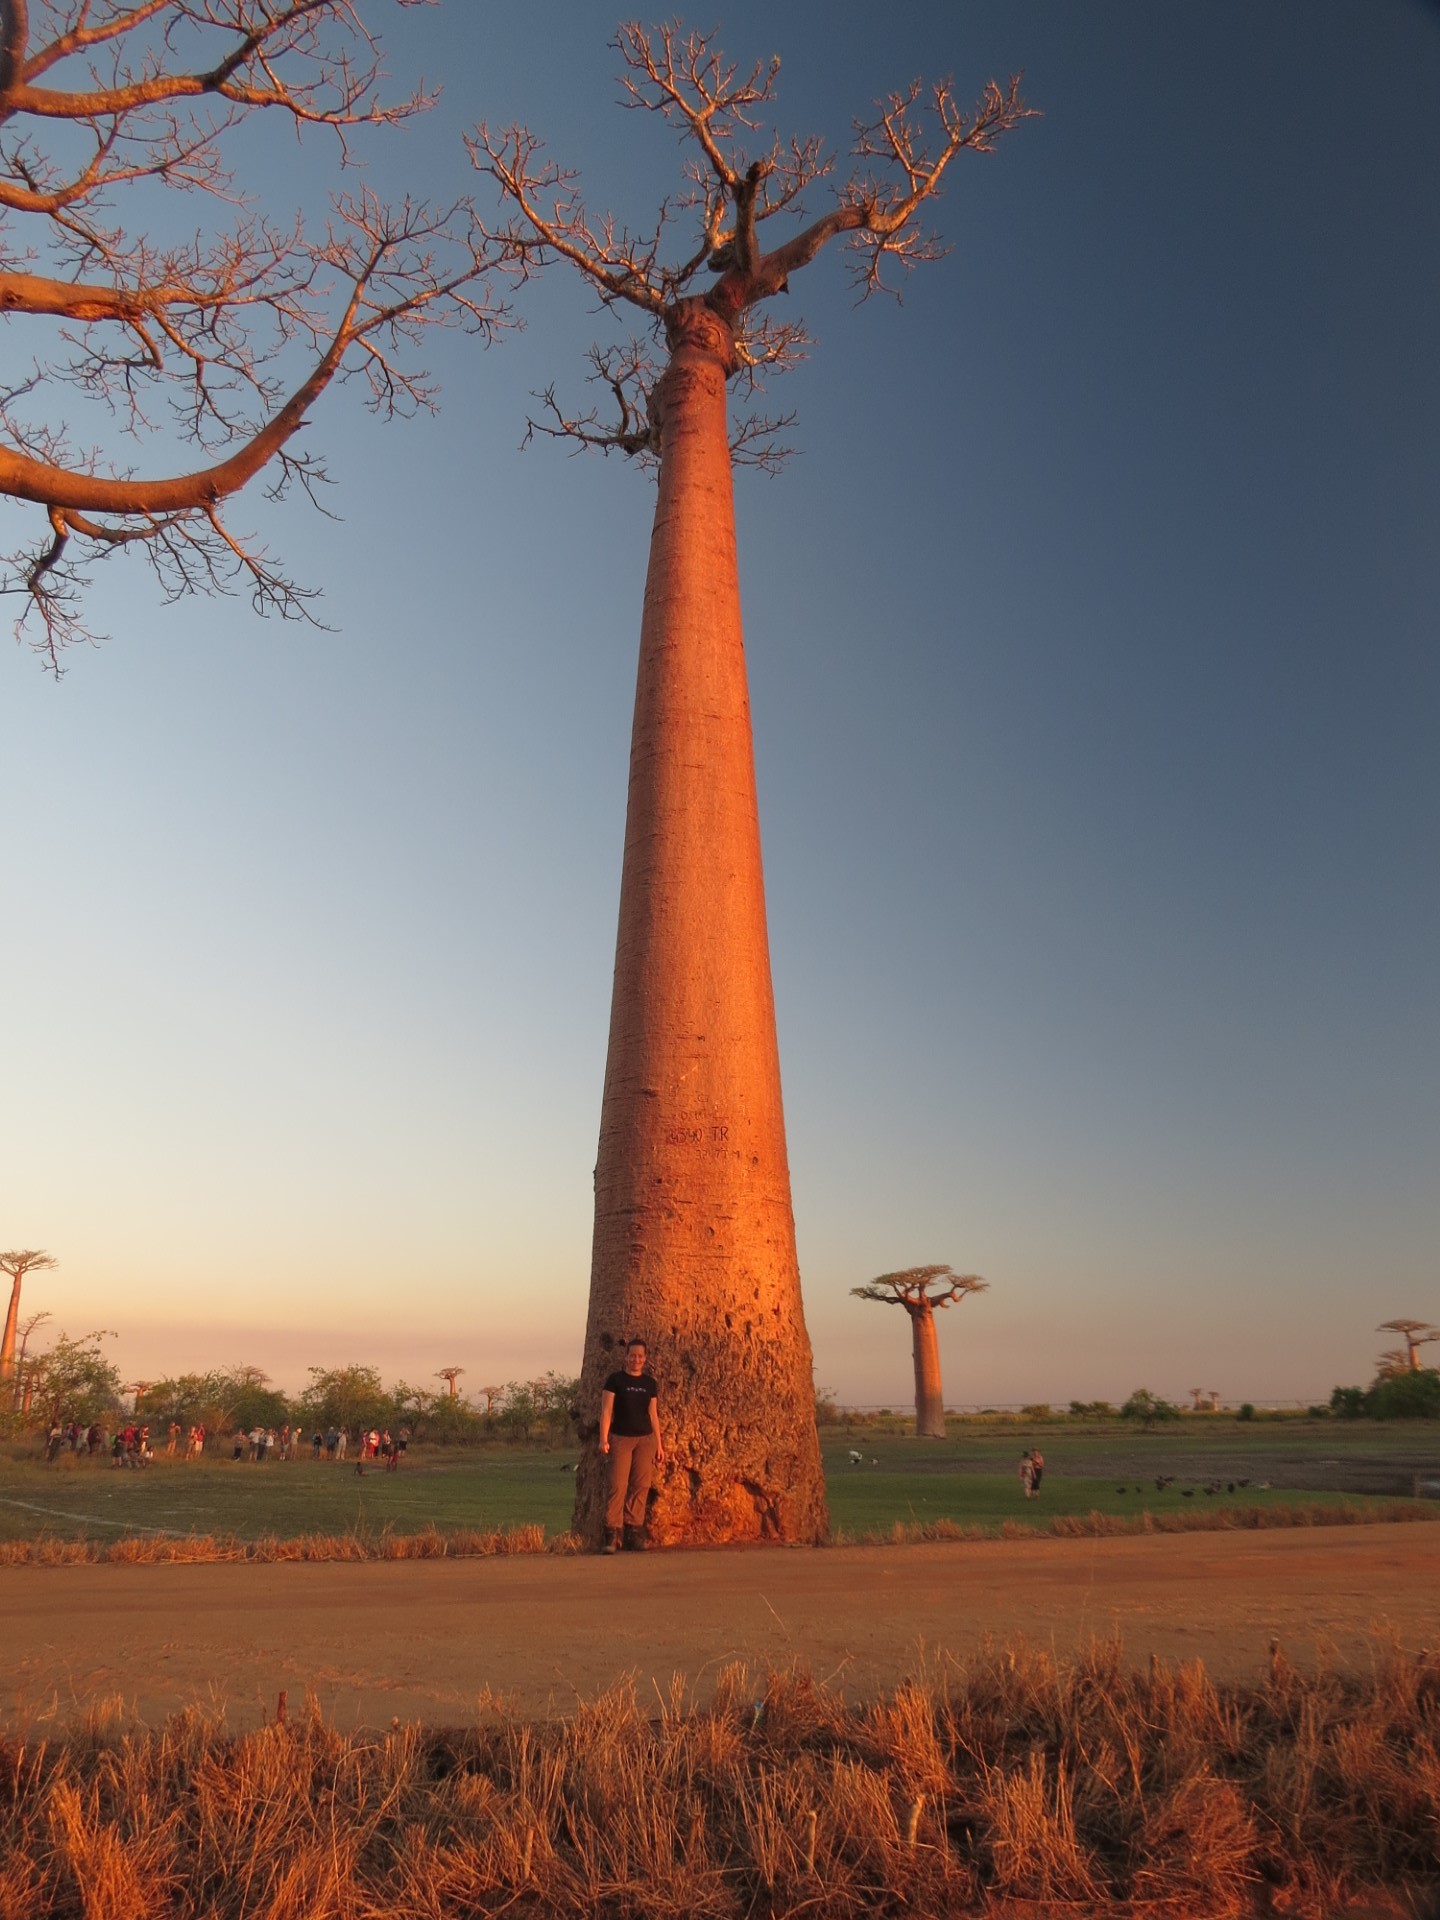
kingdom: Plantae
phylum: Tracheophyta
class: Magnoliopsida
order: Malvales
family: Malvaceae
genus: Adansonia
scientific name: Adansonia grandidieri
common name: Grandidier's baobab
